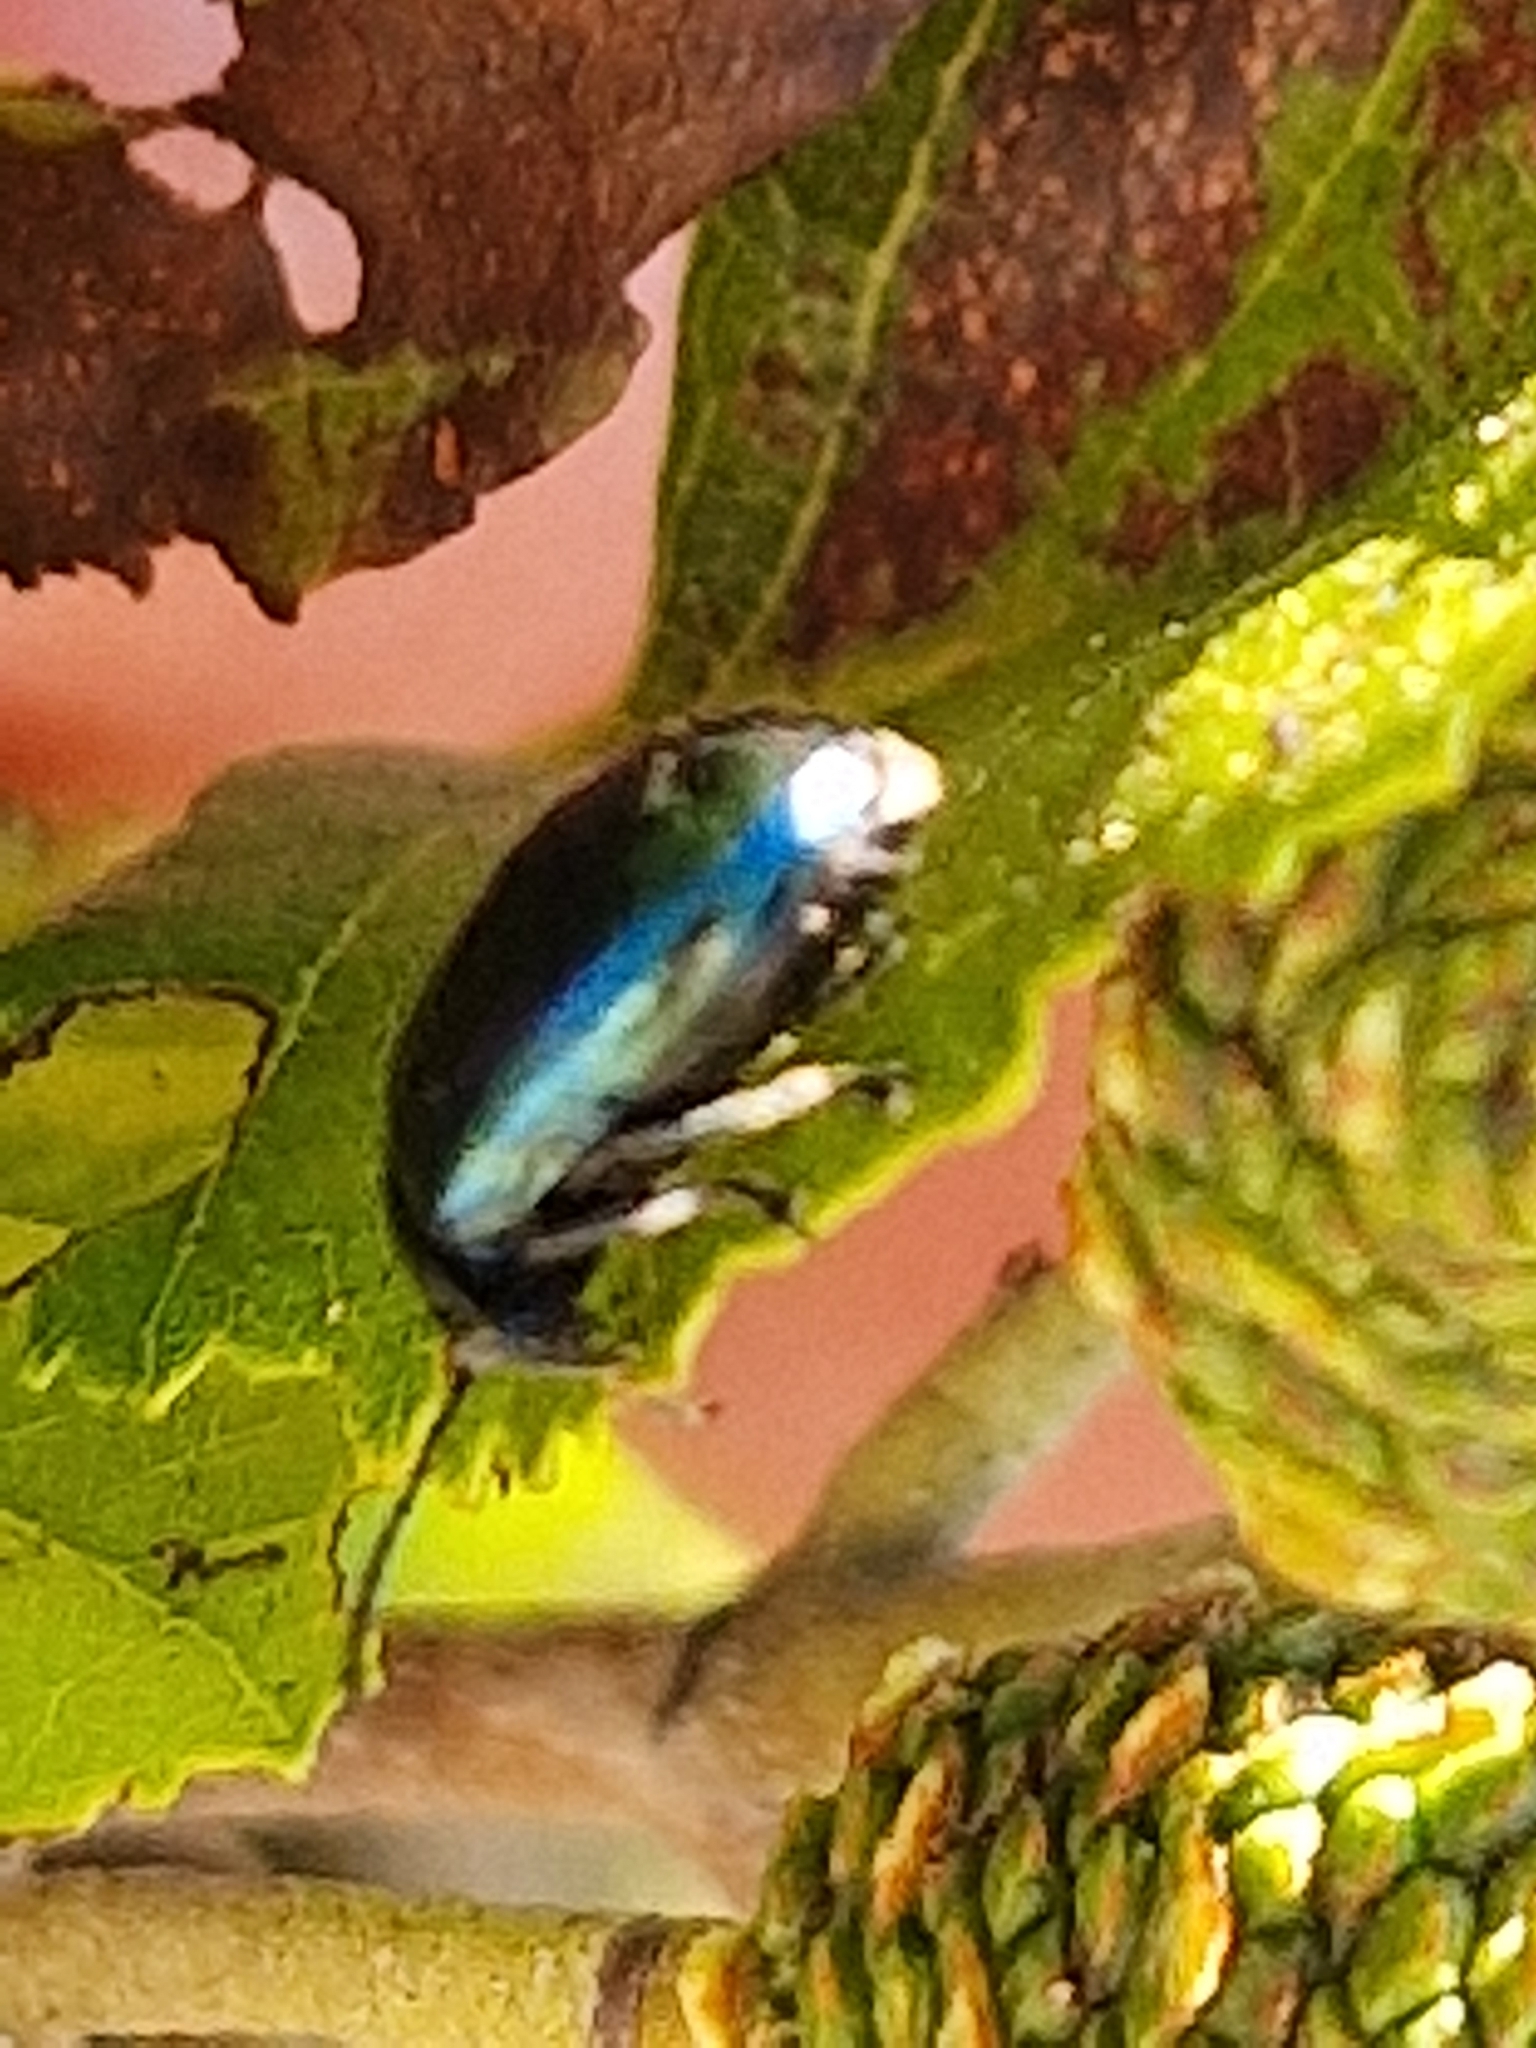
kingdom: Animalia
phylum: Arthropoda
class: Insecta
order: Coleoptera
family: Chrysomelidae
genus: Agelastica
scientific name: Agelastica alni
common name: Alder leaf beetle
